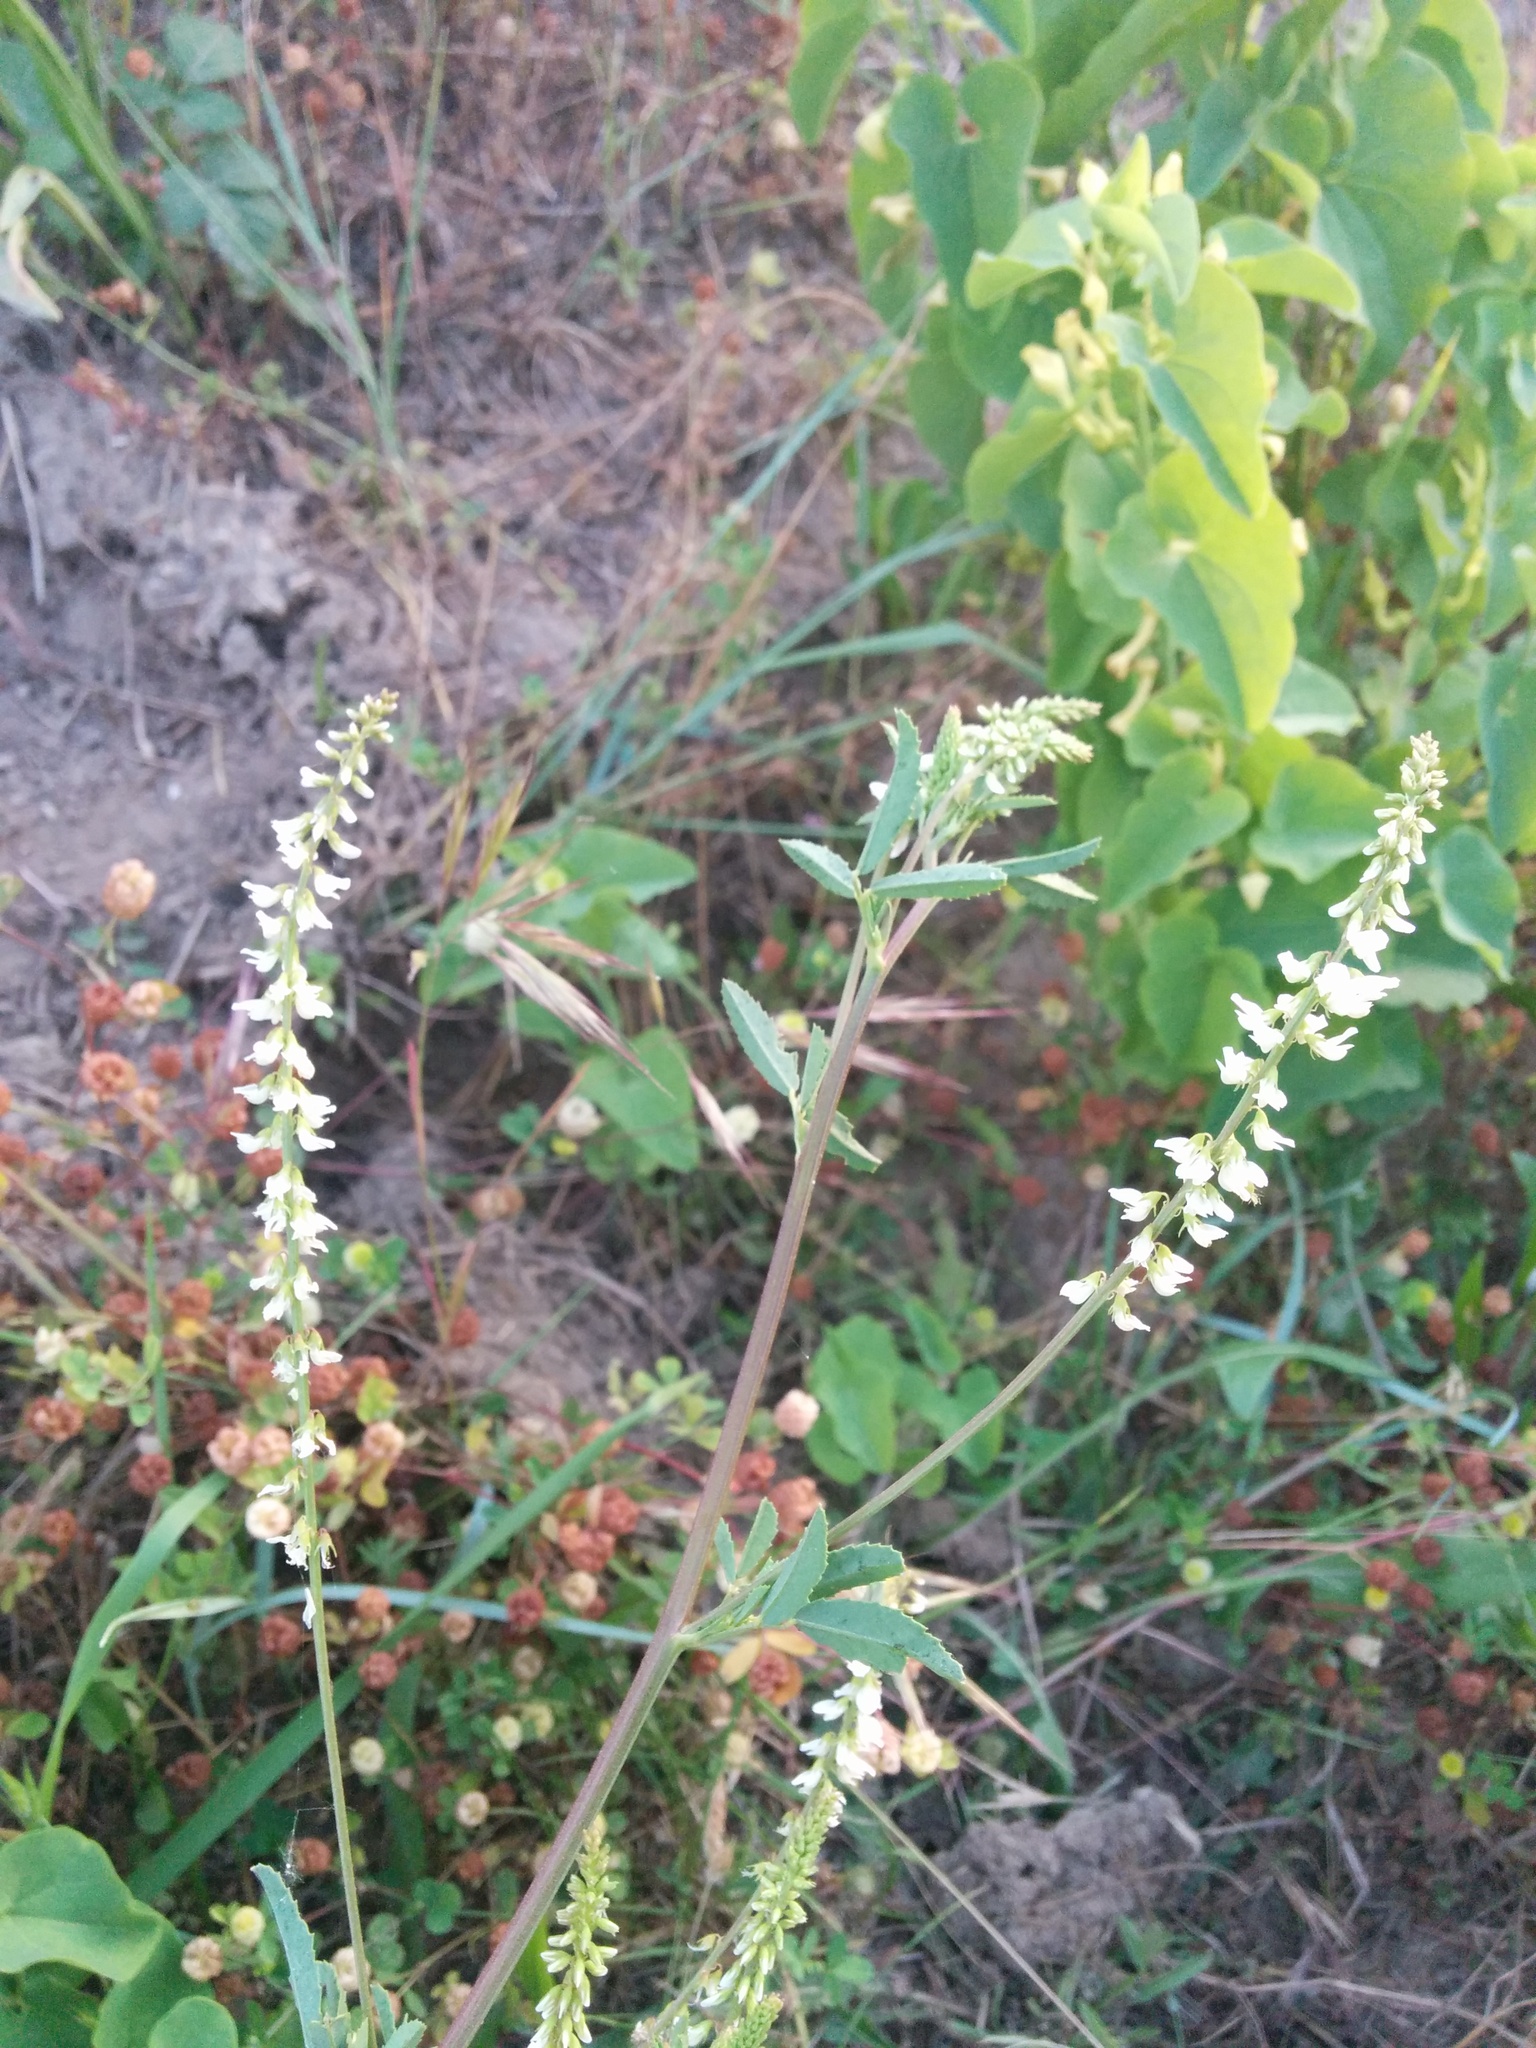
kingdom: Plantae
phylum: Tracheophyta
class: Magnoliopsida
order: Fabales
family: Fabaceae
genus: Melilotus
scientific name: Melilotus albus
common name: White melilot
